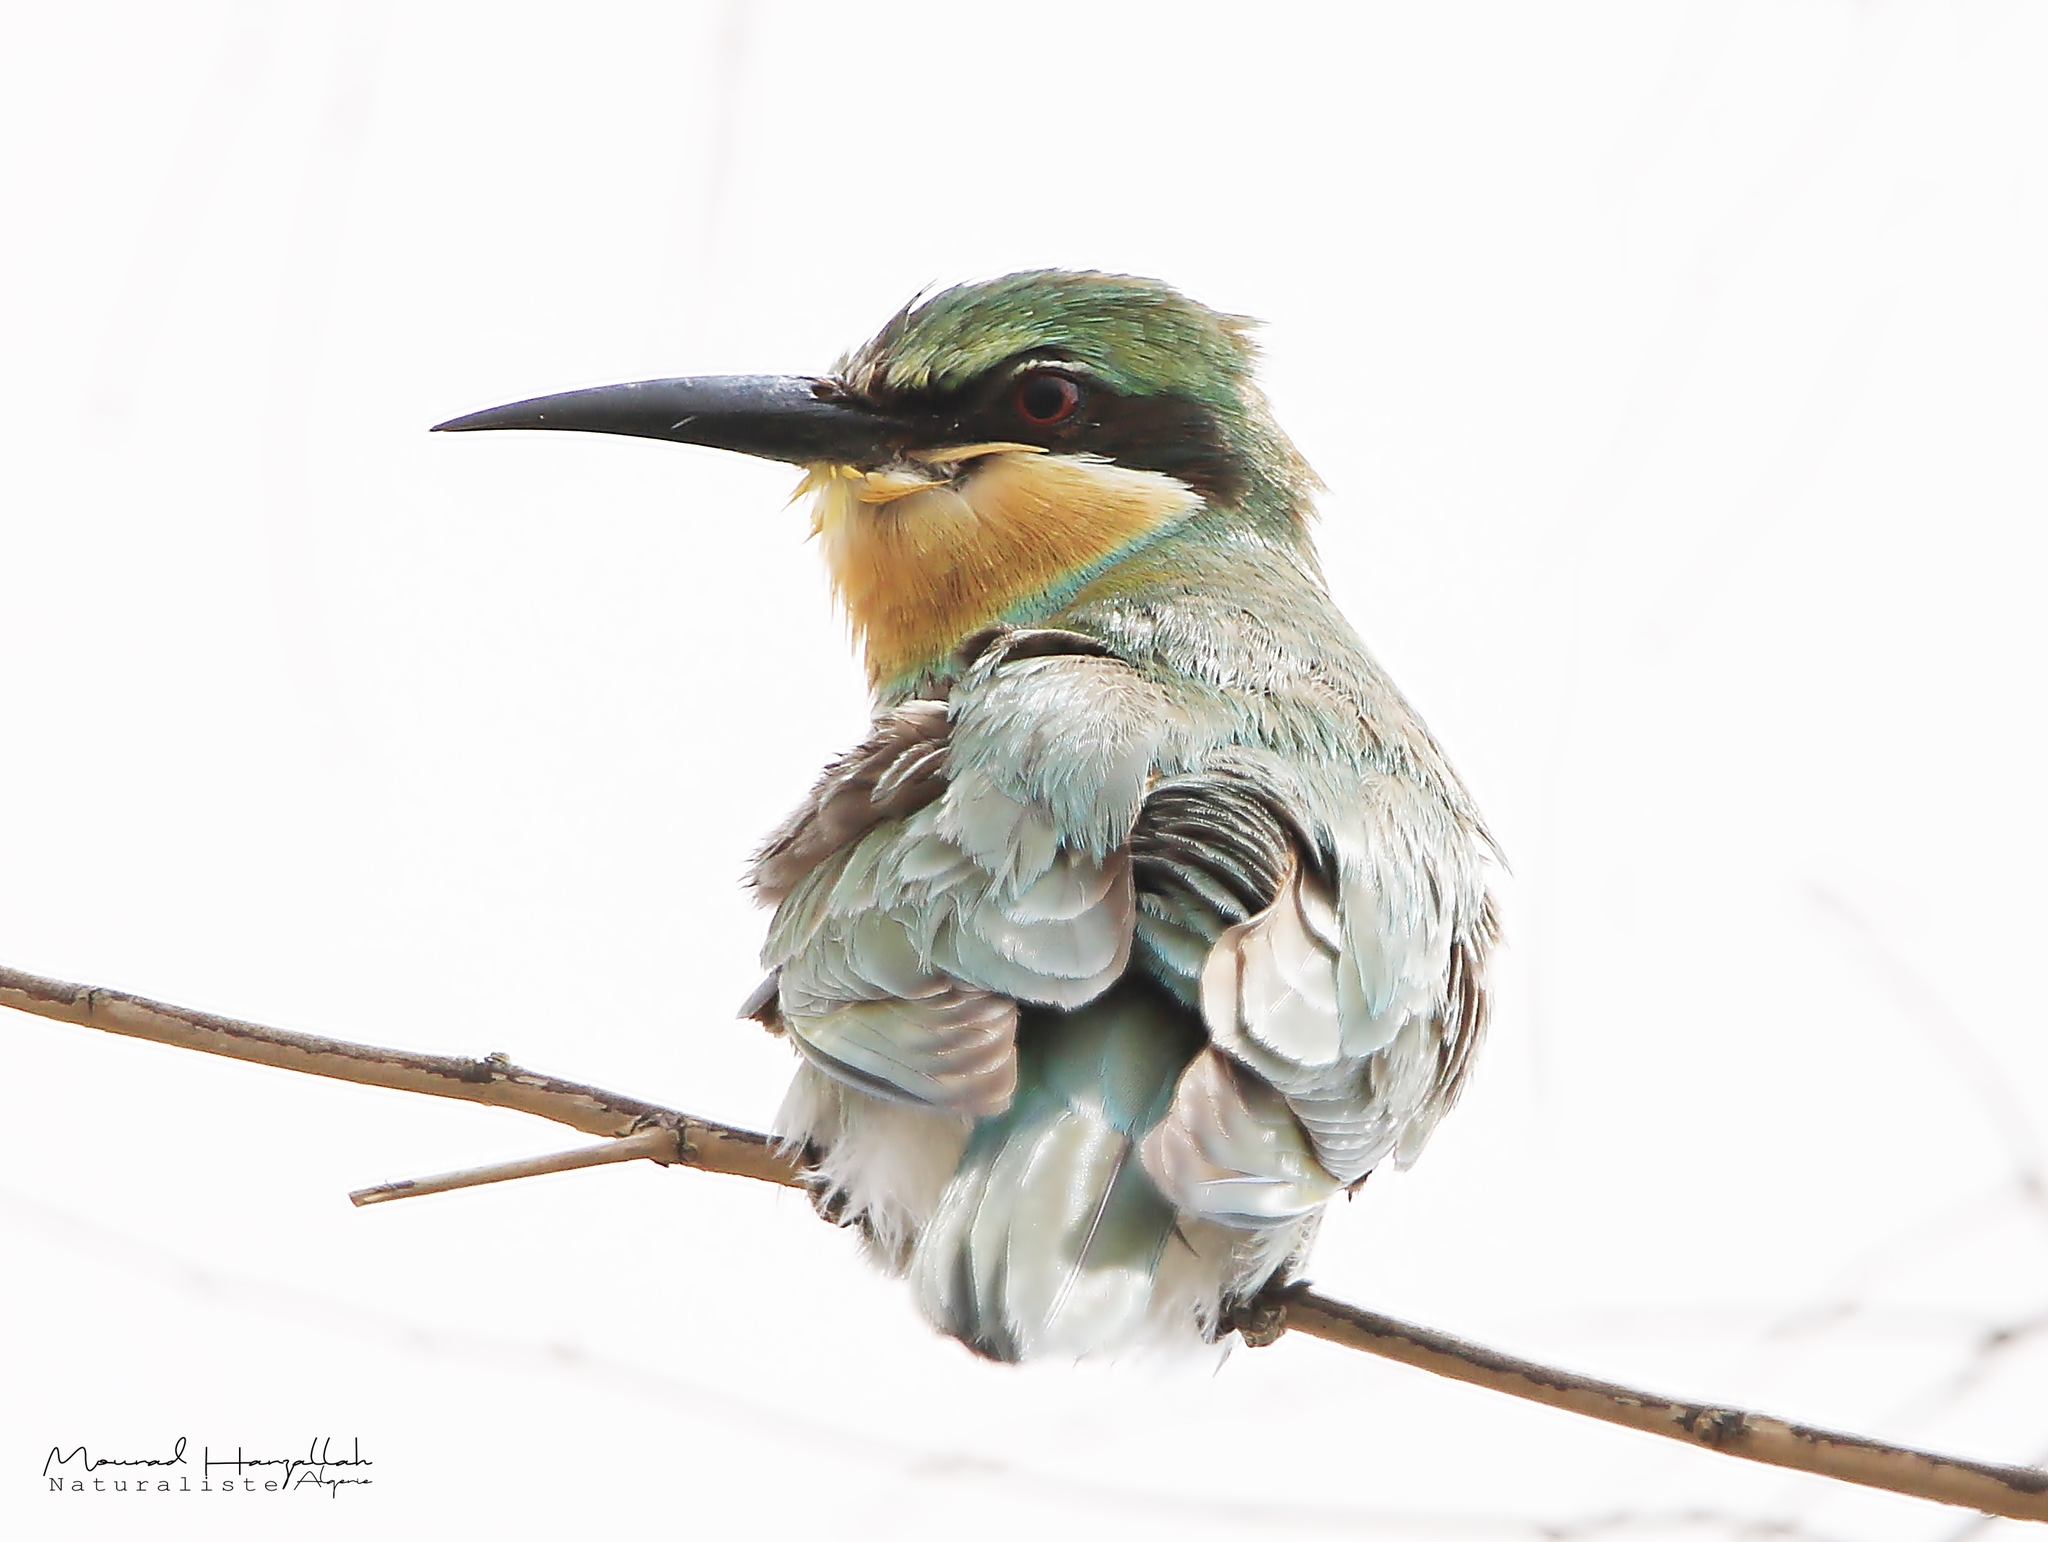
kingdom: Animalia
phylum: Chordata
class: Aves
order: Coraciiformes
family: Meropidae
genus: Merops
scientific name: Merops persicus
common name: Blue-cheeked bee-eater
